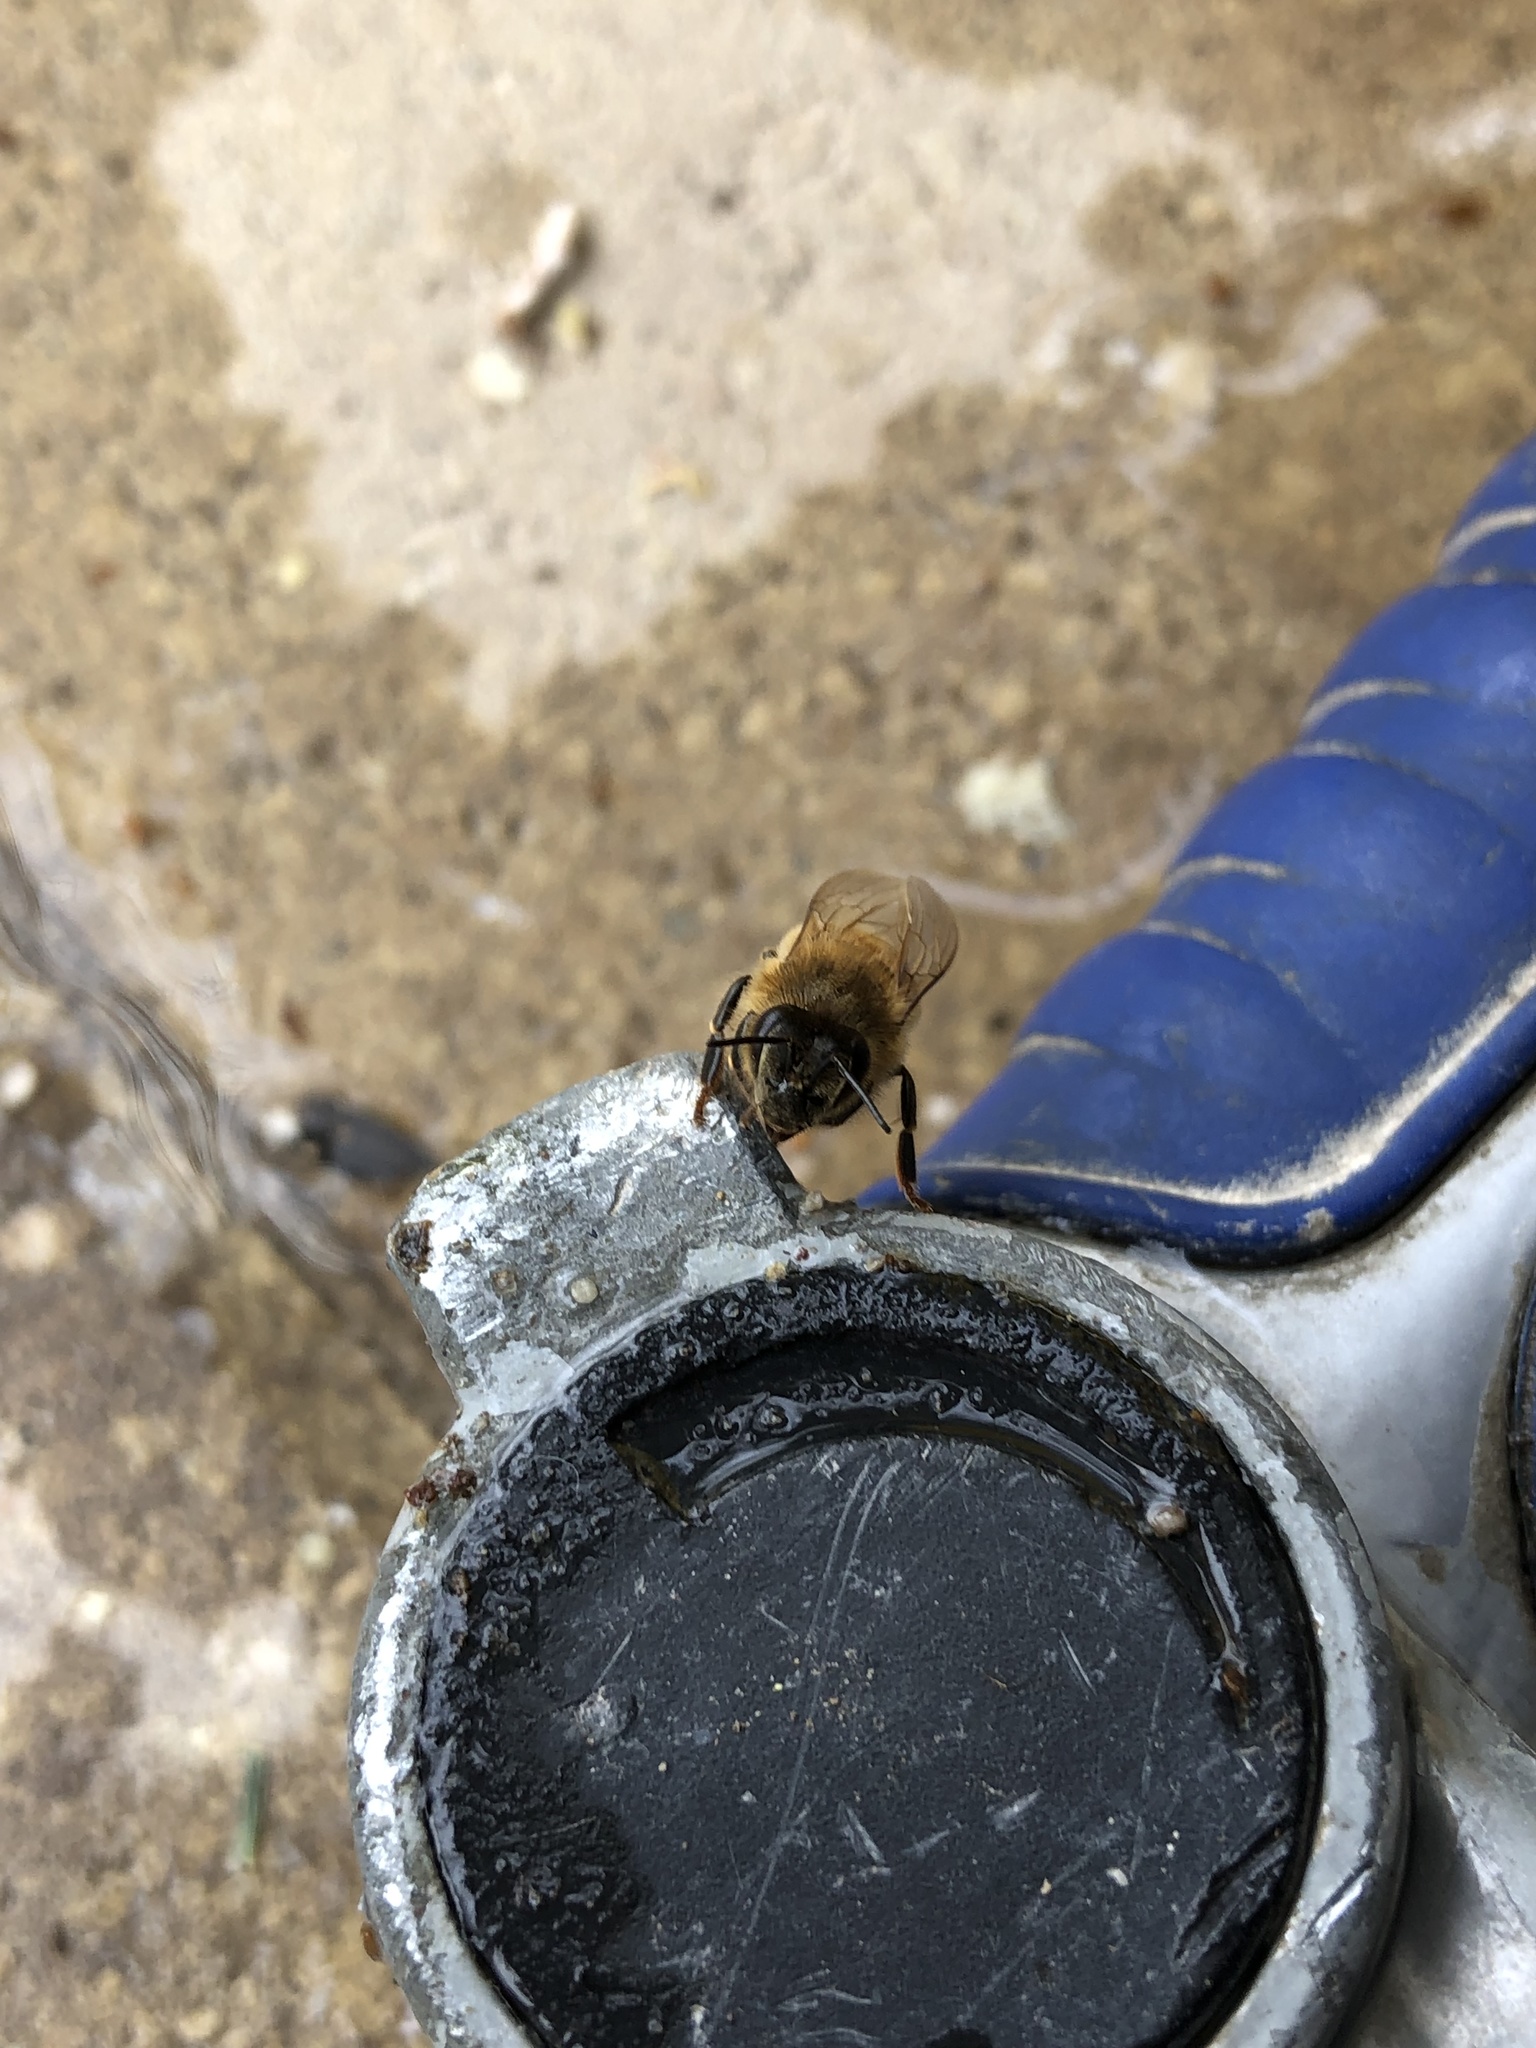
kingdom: Animalia
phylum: Arthropoda
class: Insecta
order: Hymenoptera
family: Apidae
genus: Apis
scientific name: Apis mellifera
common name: Honey bee
